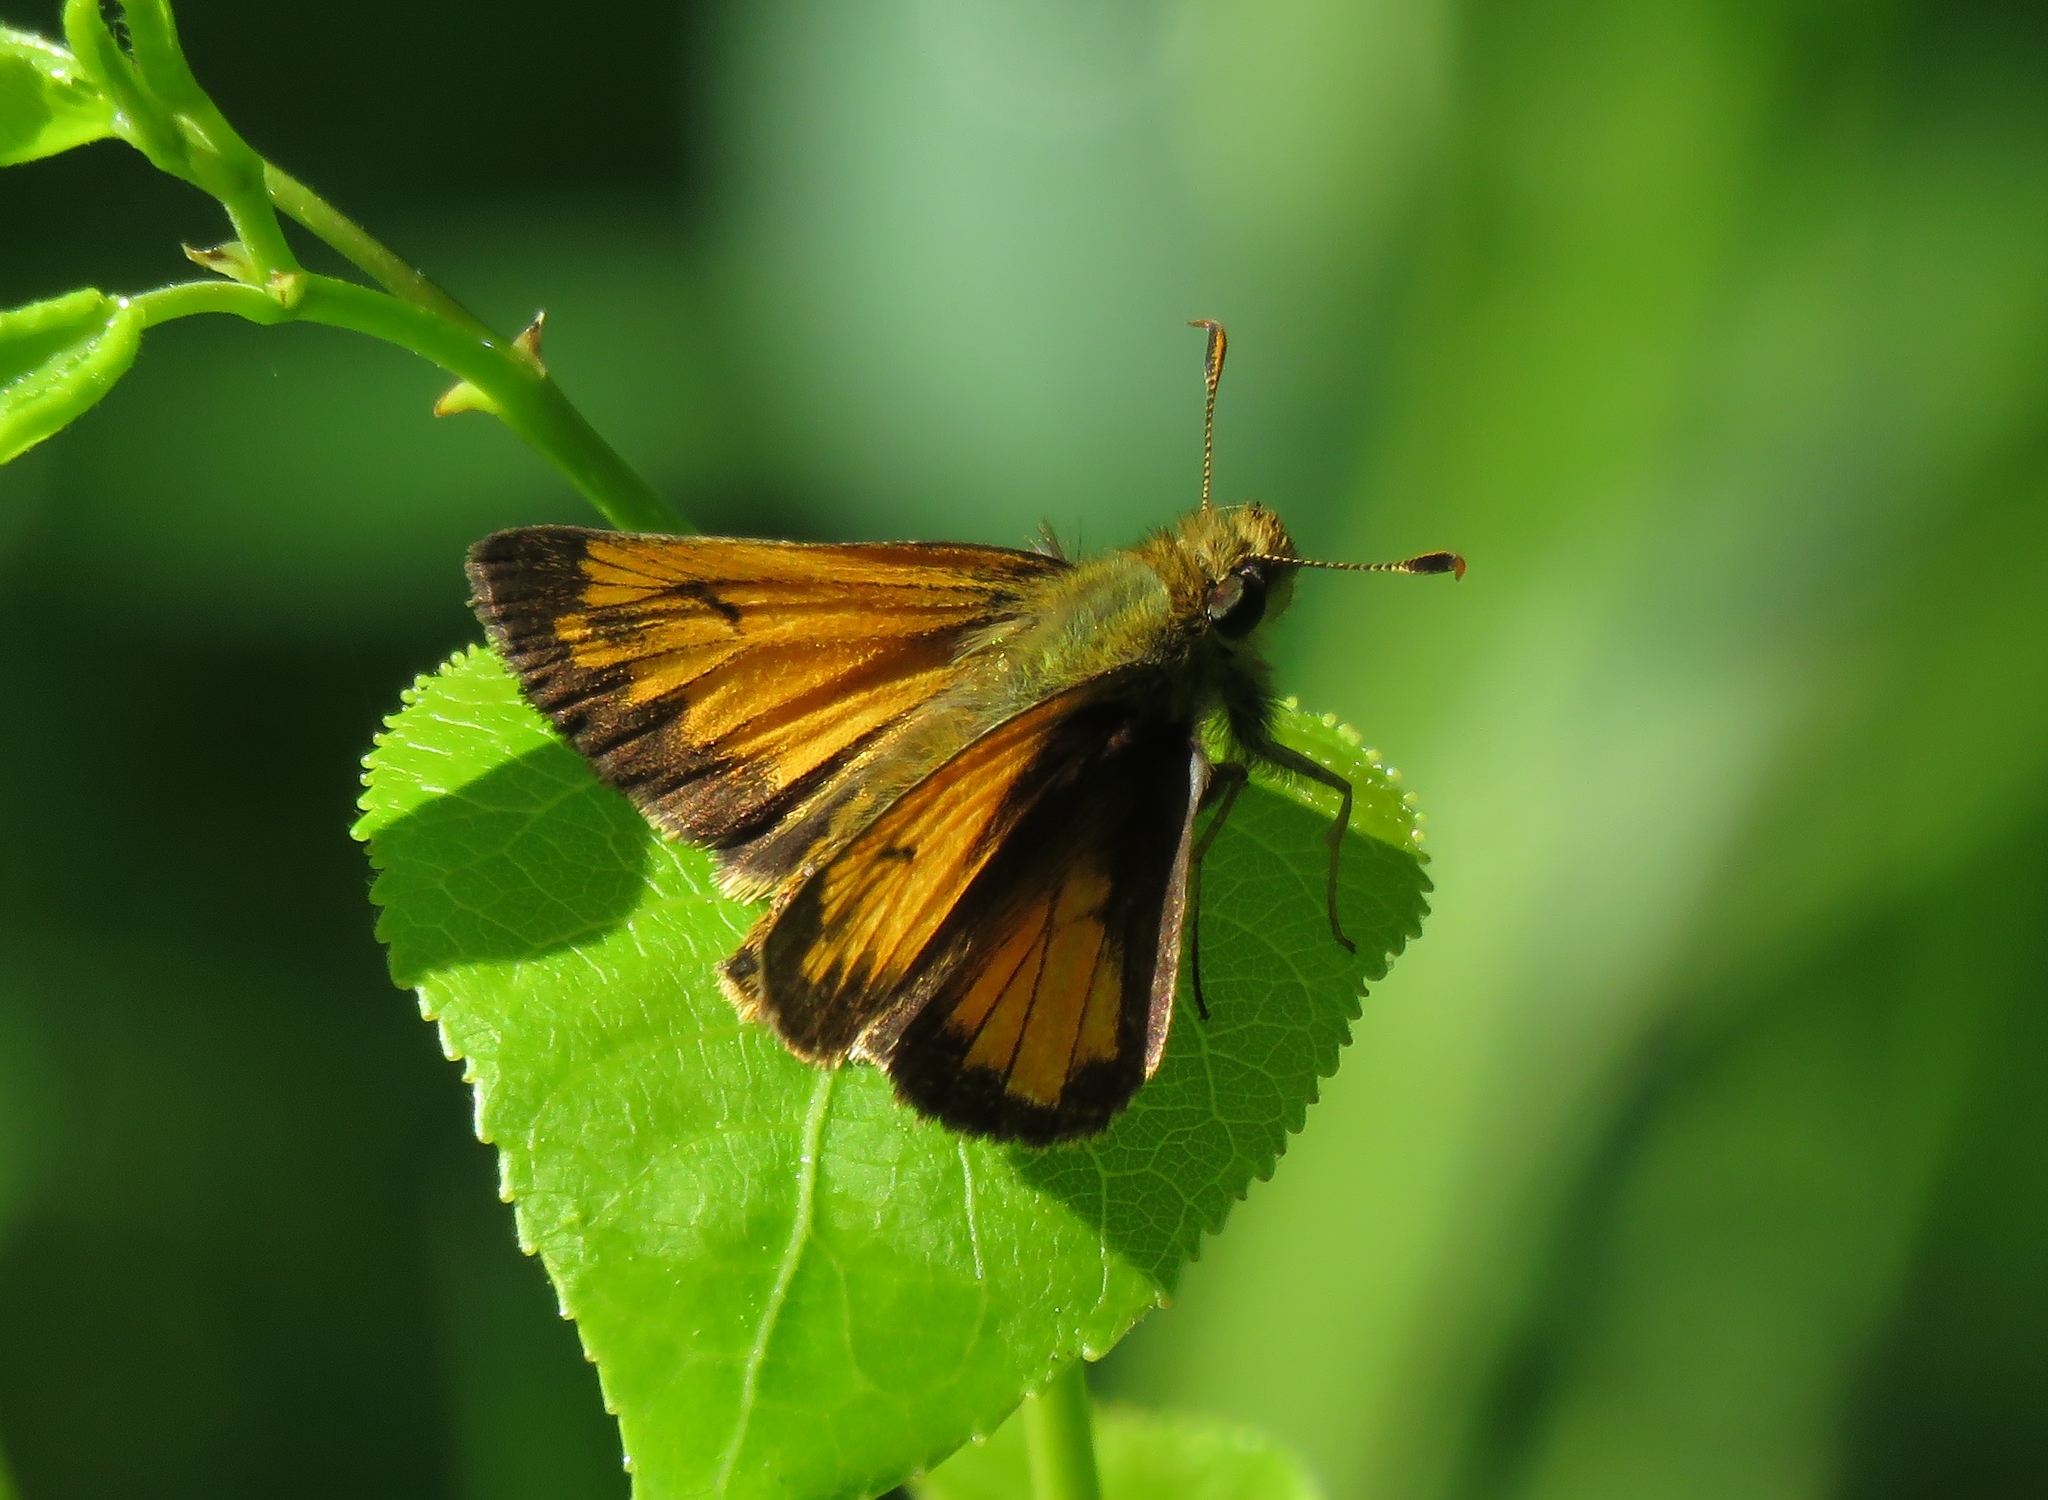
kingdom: Animalia
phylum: Arthropoda
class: Insecta
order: Lepidoptera
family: Hesperiidae
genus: Lon
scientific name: Lon hobomok
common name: Hobomok skipper
